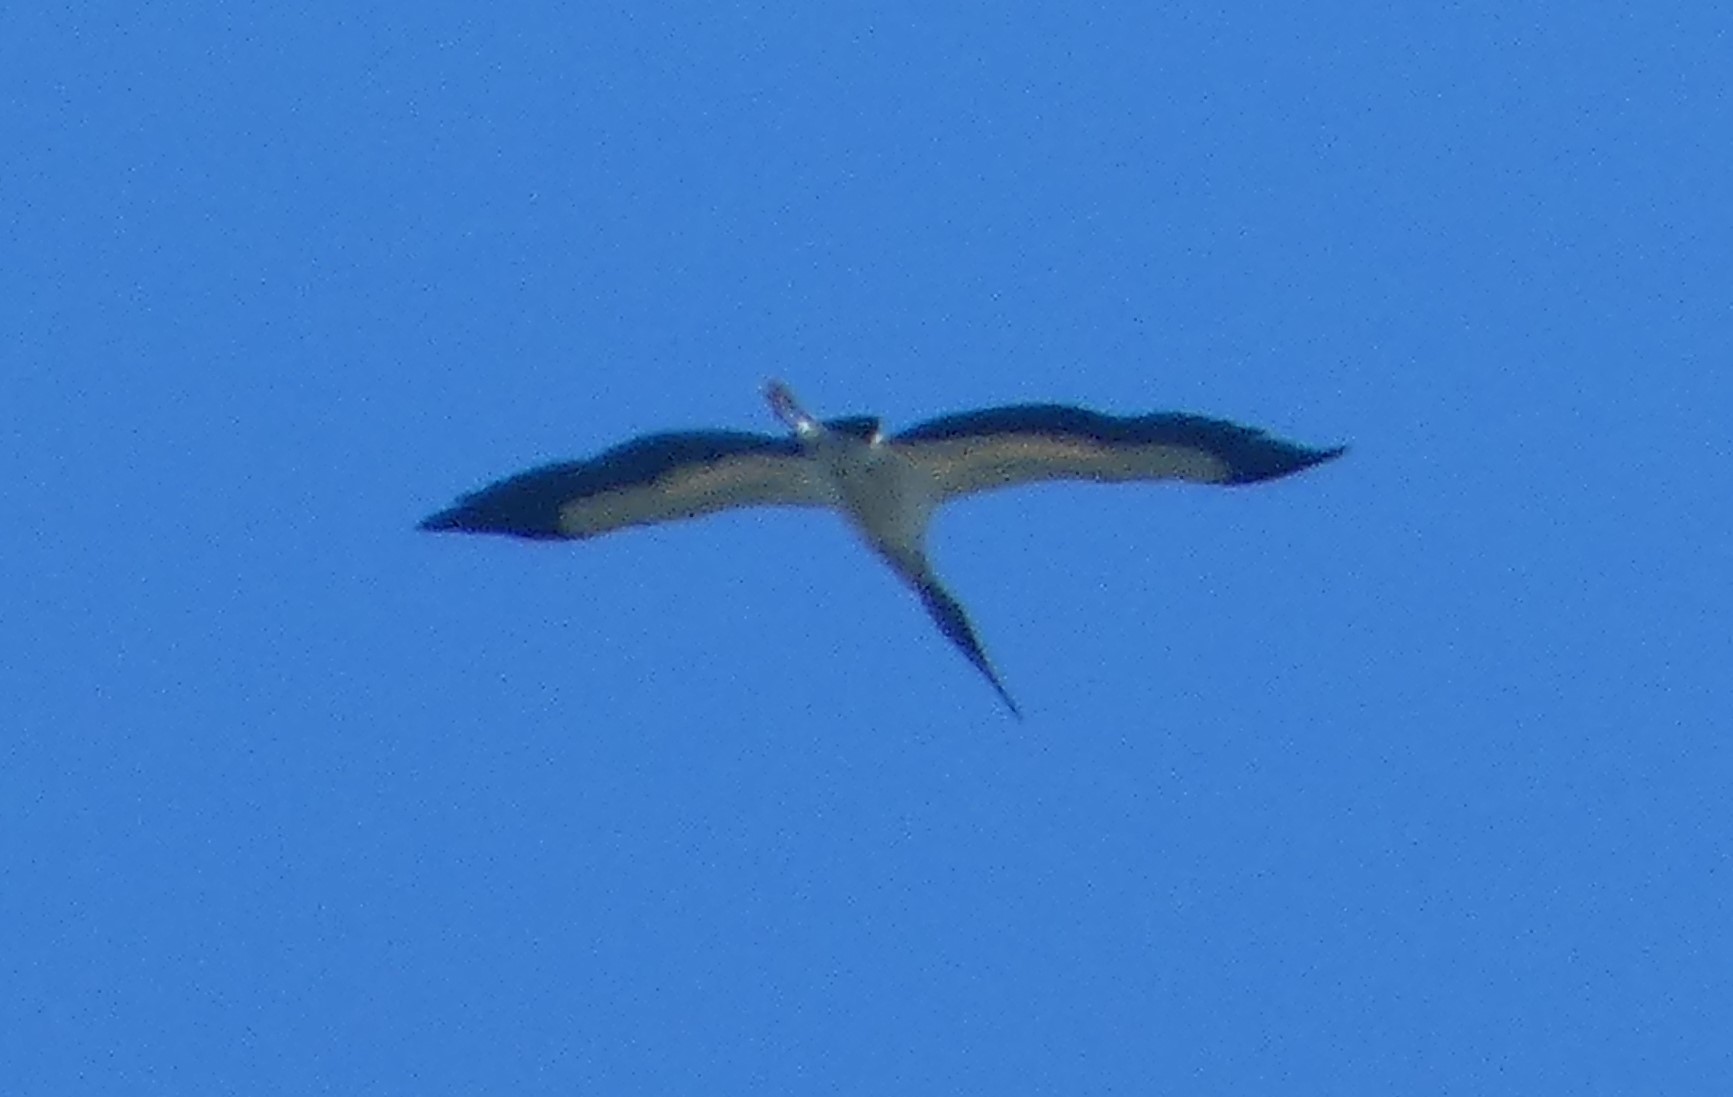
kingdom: Animalia
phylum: Chordata
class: Aves
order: Ciconiiformes
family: Ciconiidae
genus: Mycteria
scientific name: Mycteria americana
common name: Wood stork
